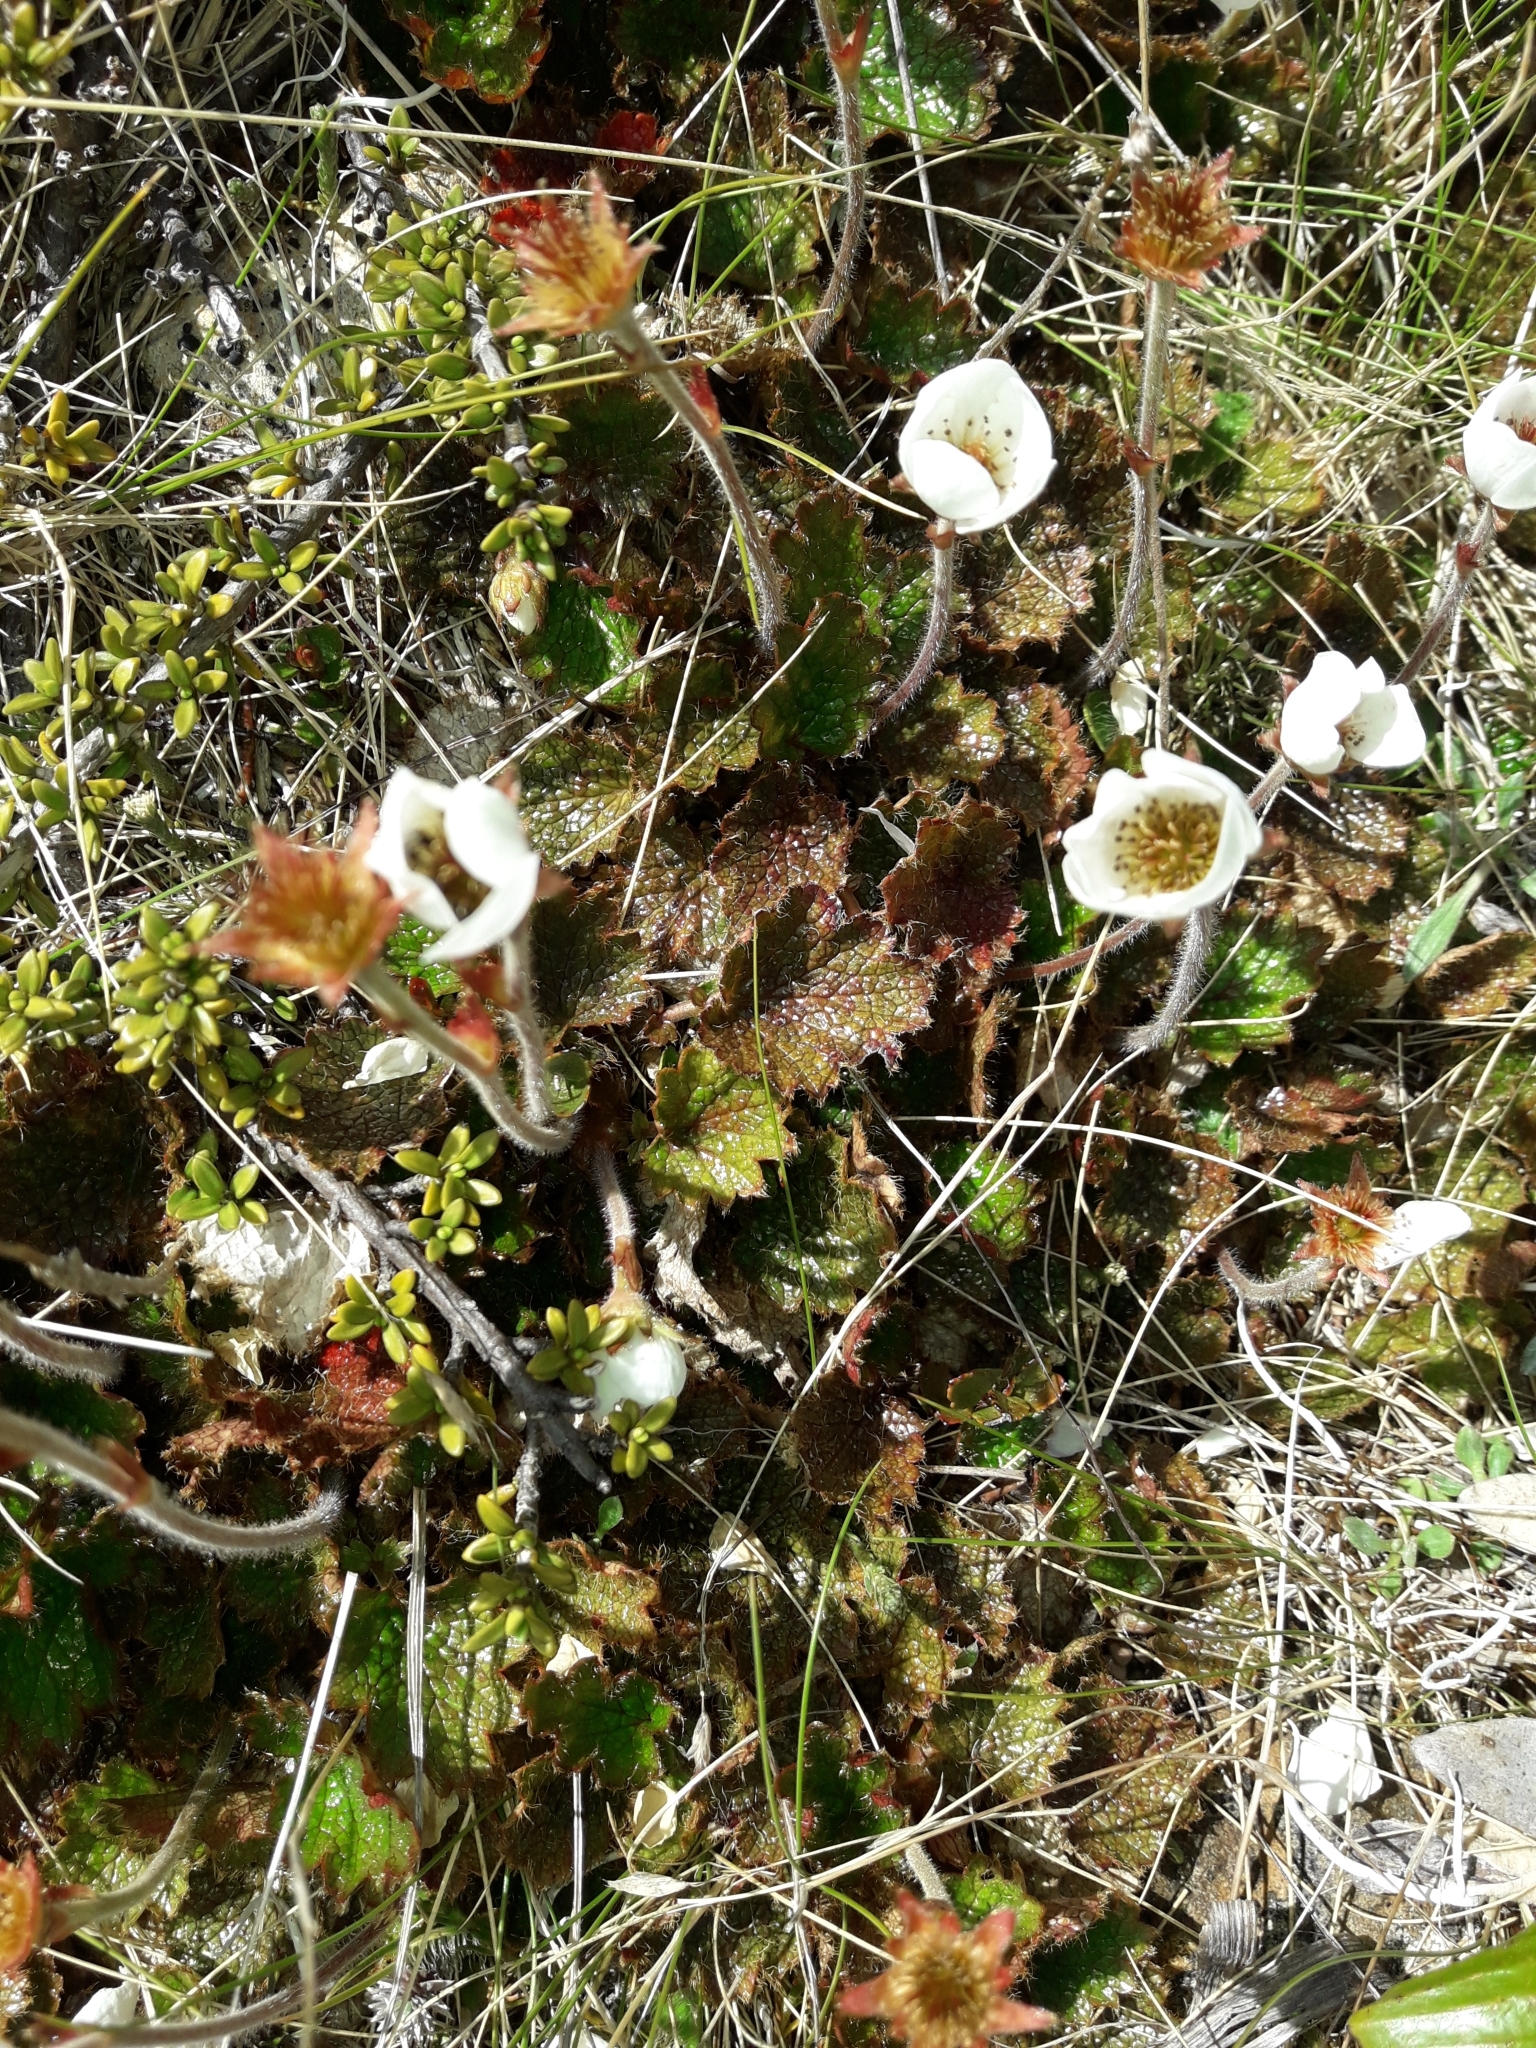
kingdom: Plantae
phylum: Tracheophyta
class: Magnoliopsida
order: Rosales
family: Rosaceae
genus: Geum
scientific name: Geum uniflorum
